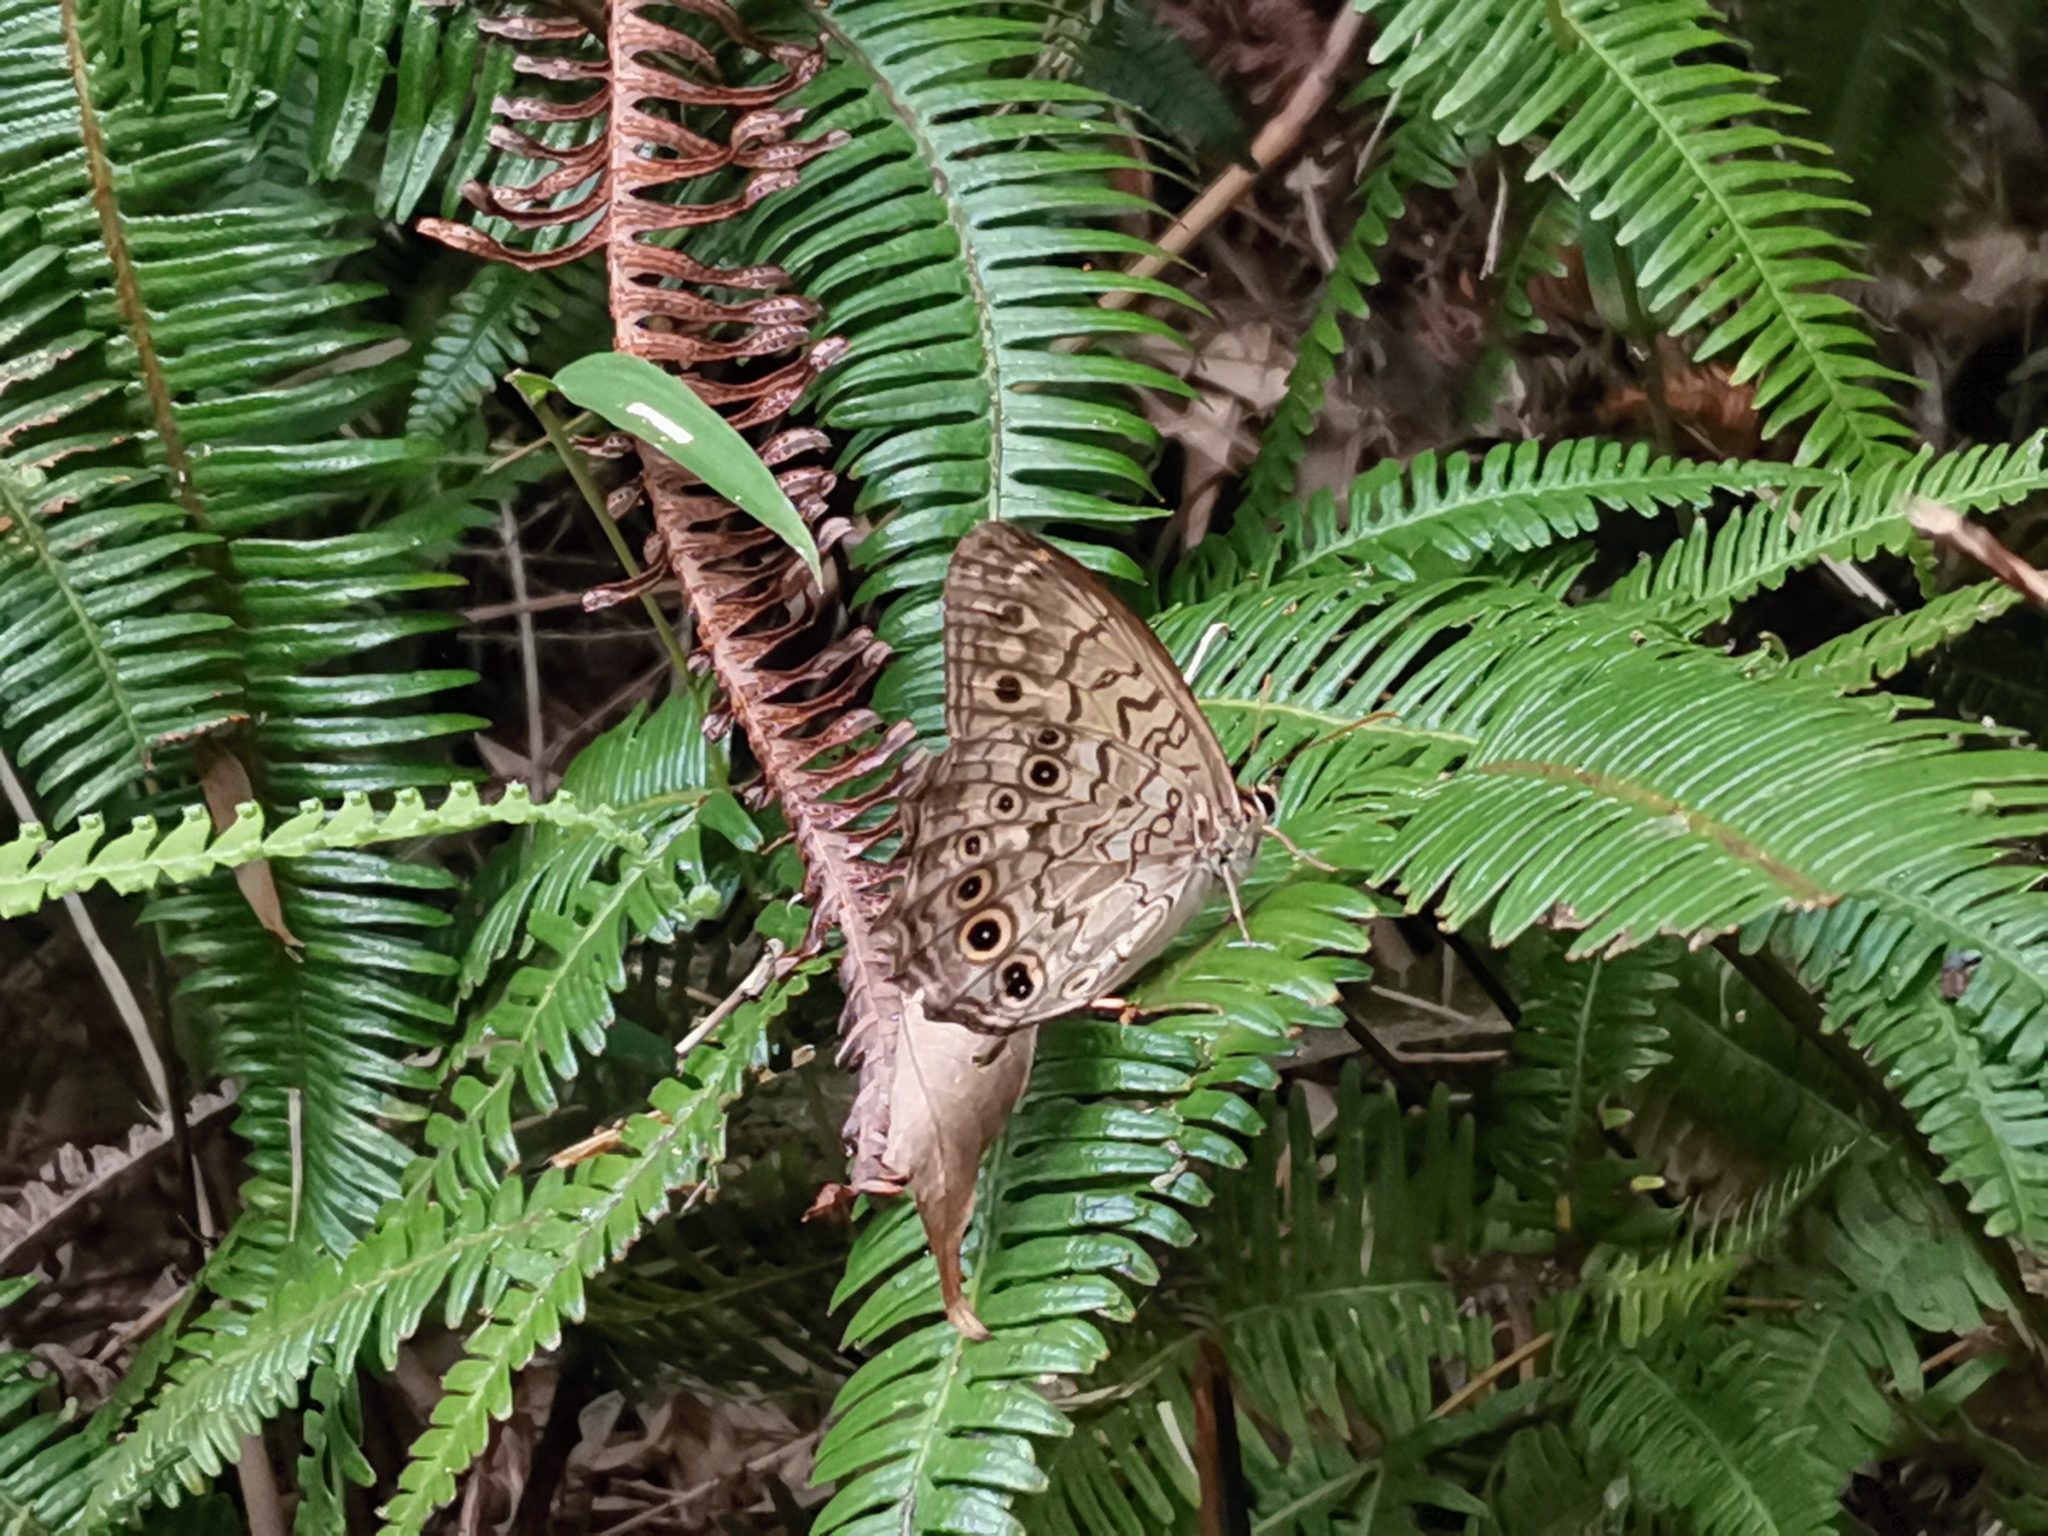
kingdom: Animalia
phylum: Arthropoda
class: Insecta
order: Lepidoptera
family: Nymphalidae
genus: Neope
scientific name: Neope goschkevitschii
